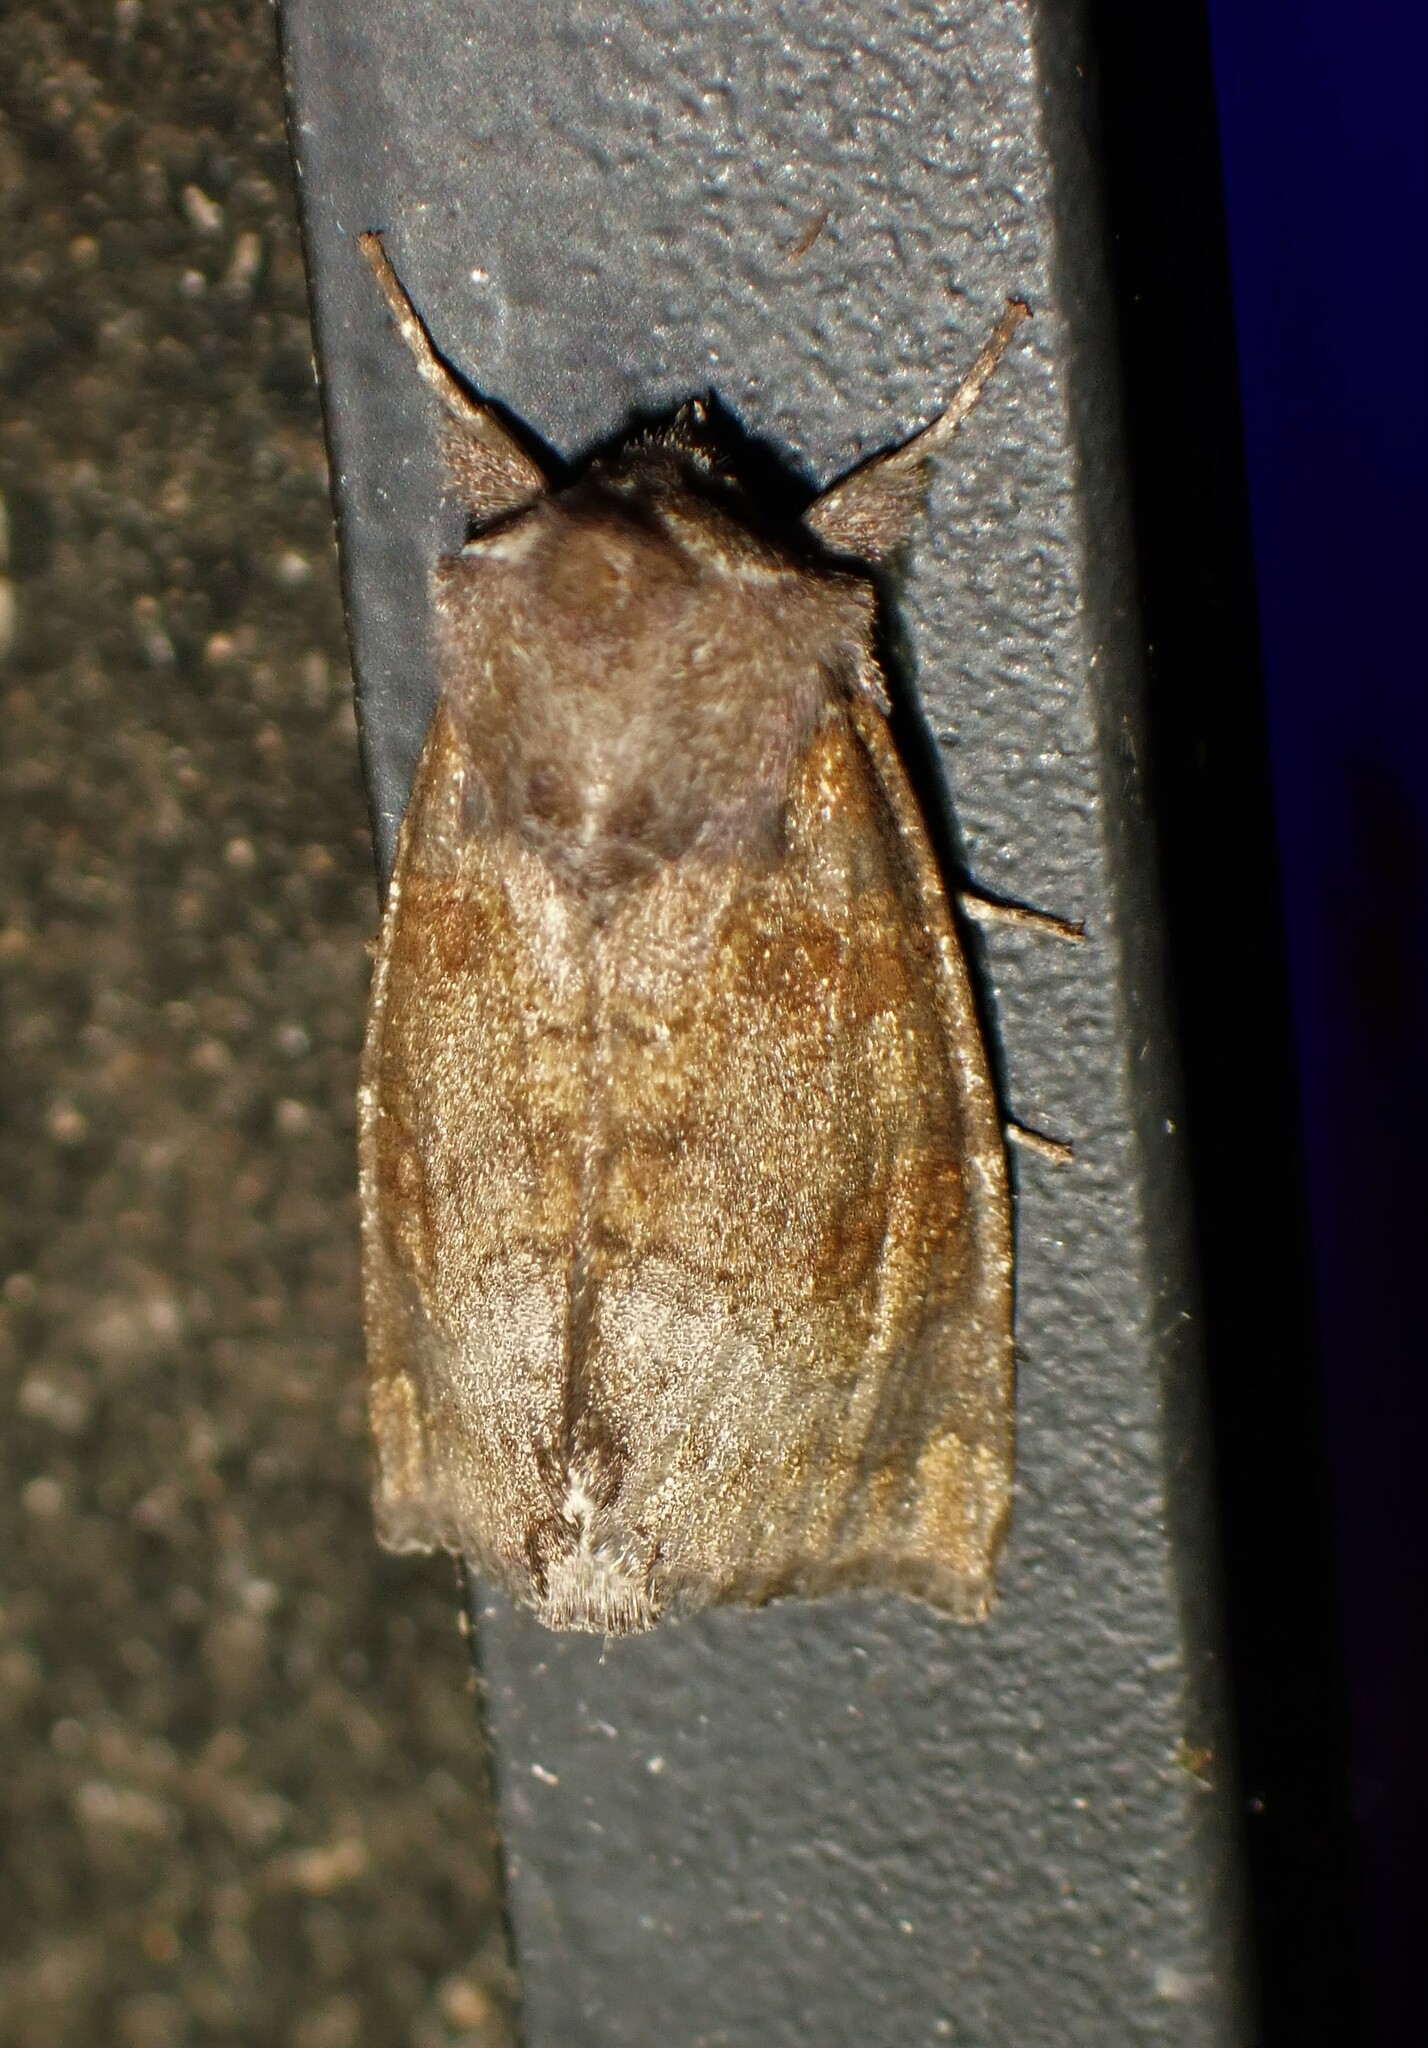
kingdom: Animalia
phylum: Arthropoda
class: Insecta
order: Lepidoptera
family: Noctuidae
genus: Papaipema
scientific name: Papaipema unimoda
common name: Meadow rue borer moth
